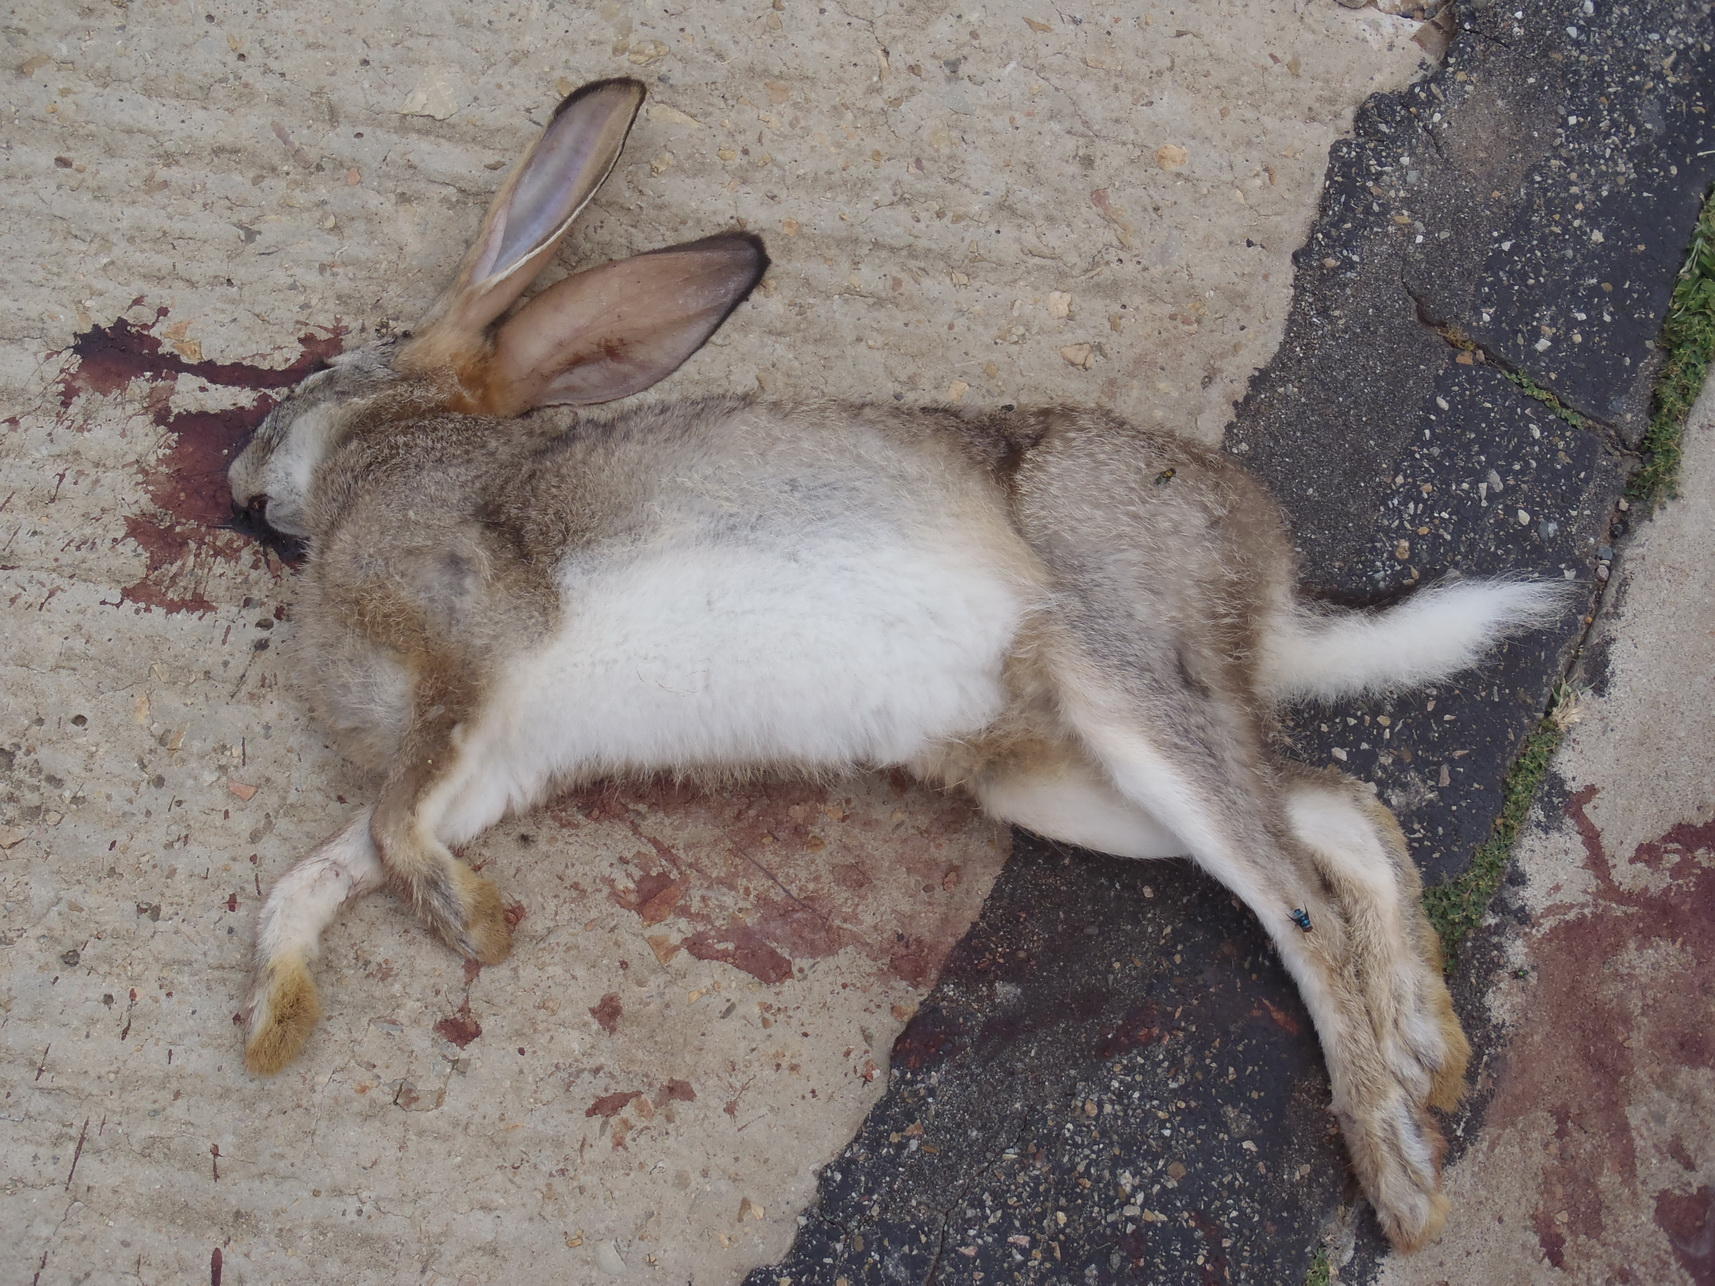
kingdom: Animalia
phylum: Chordata
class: Mammalia
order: Lagomorpha
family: Leporidae
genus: Lepus
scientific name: Lepus saxatilis
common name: Scrub hare
